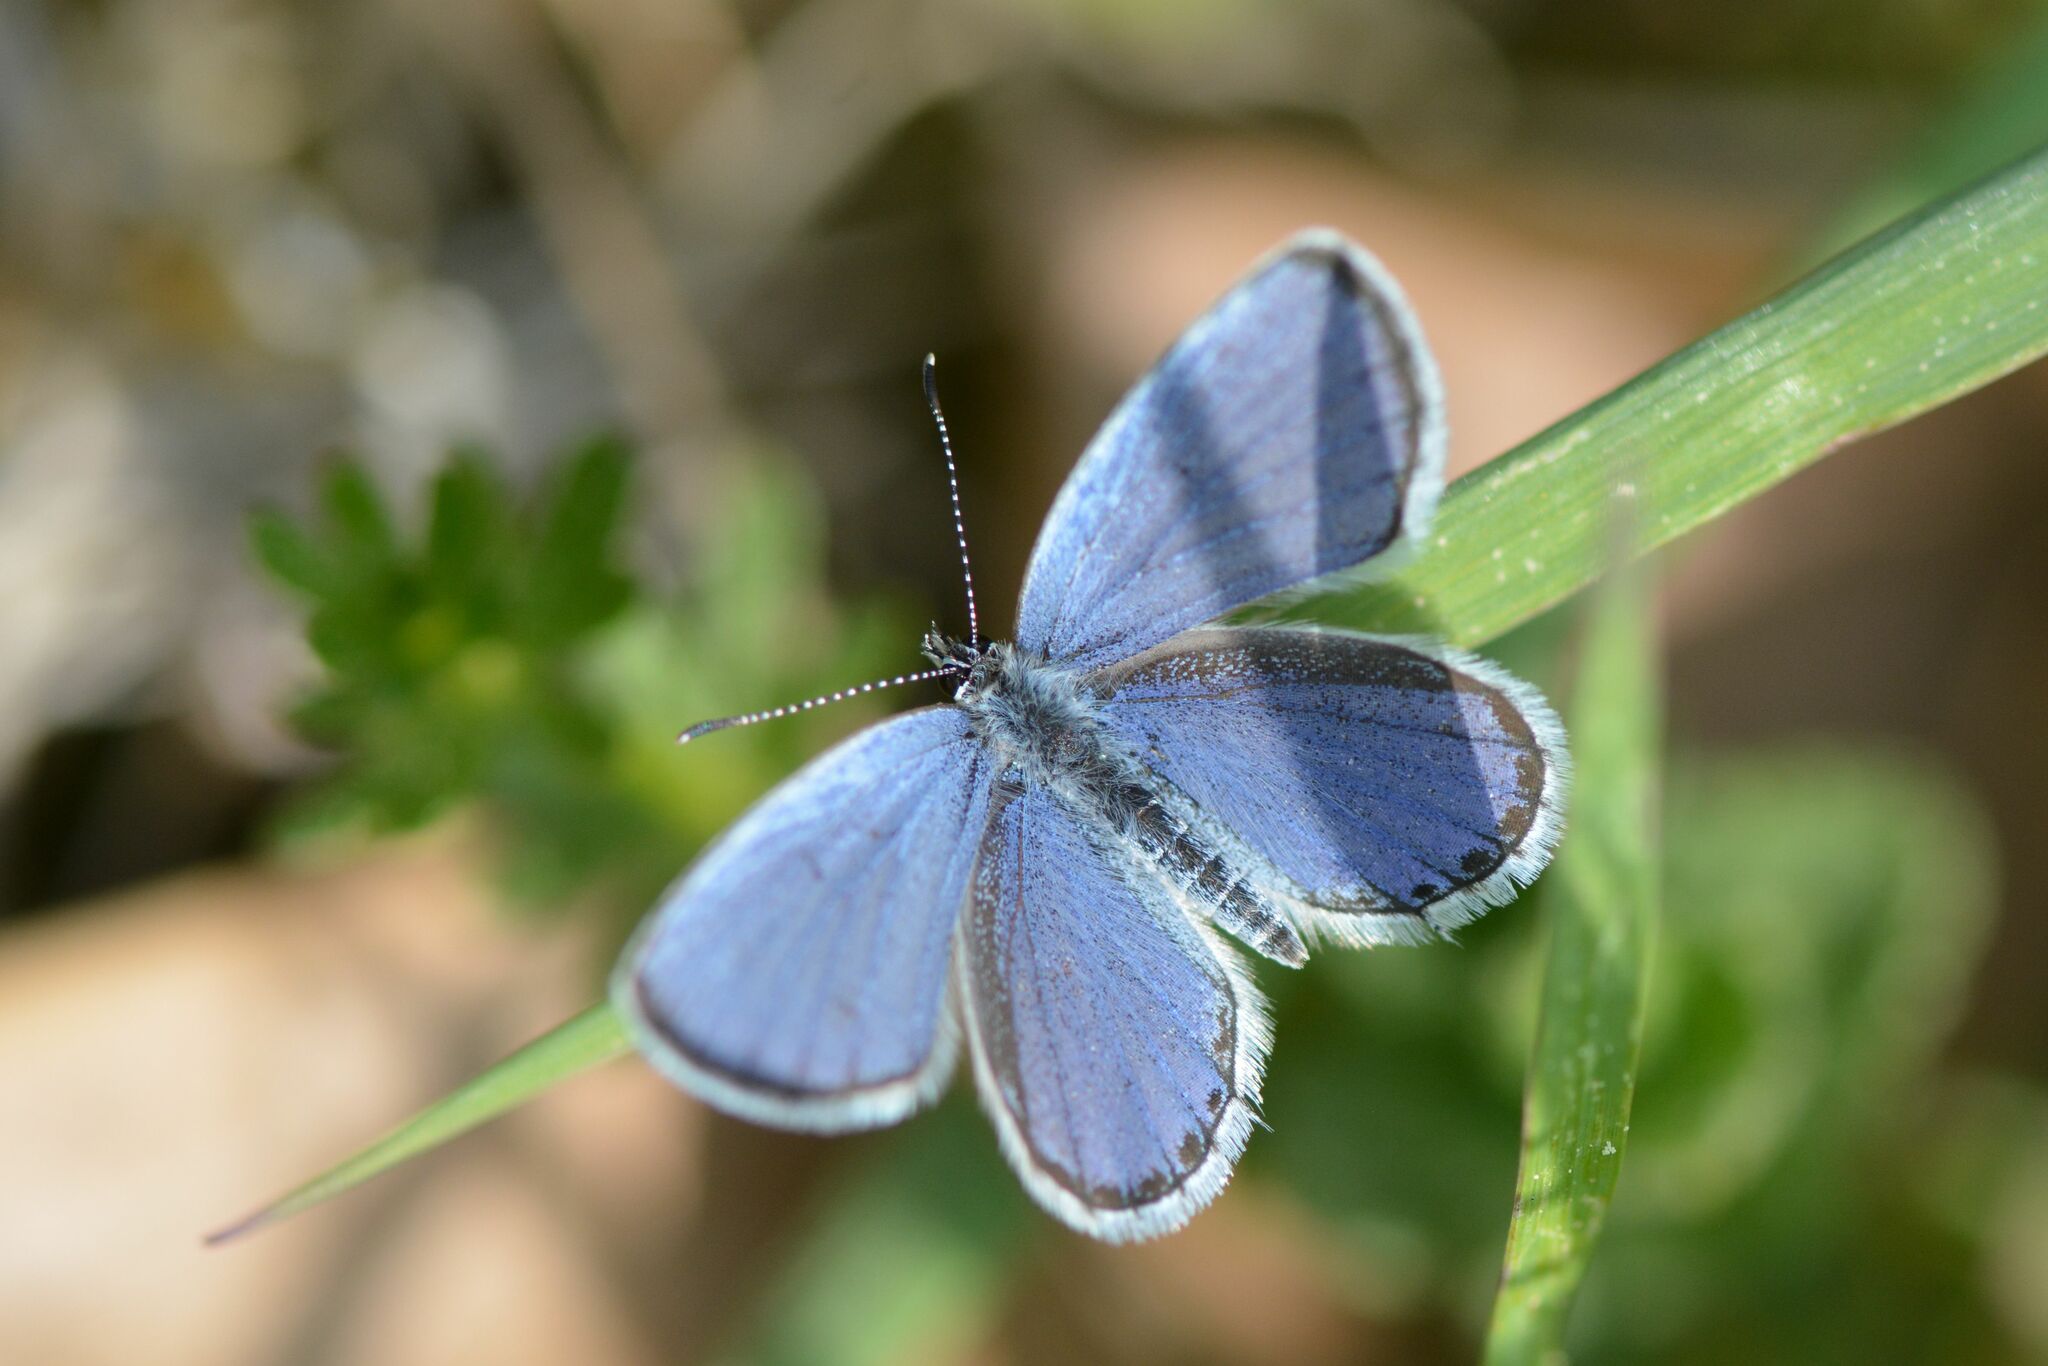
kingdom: Animalia
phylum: Arthropoda
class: Insecta
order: Lepidoptera
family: Lycaenidae
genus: Elkalyce
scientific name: Elkalyce argiades
